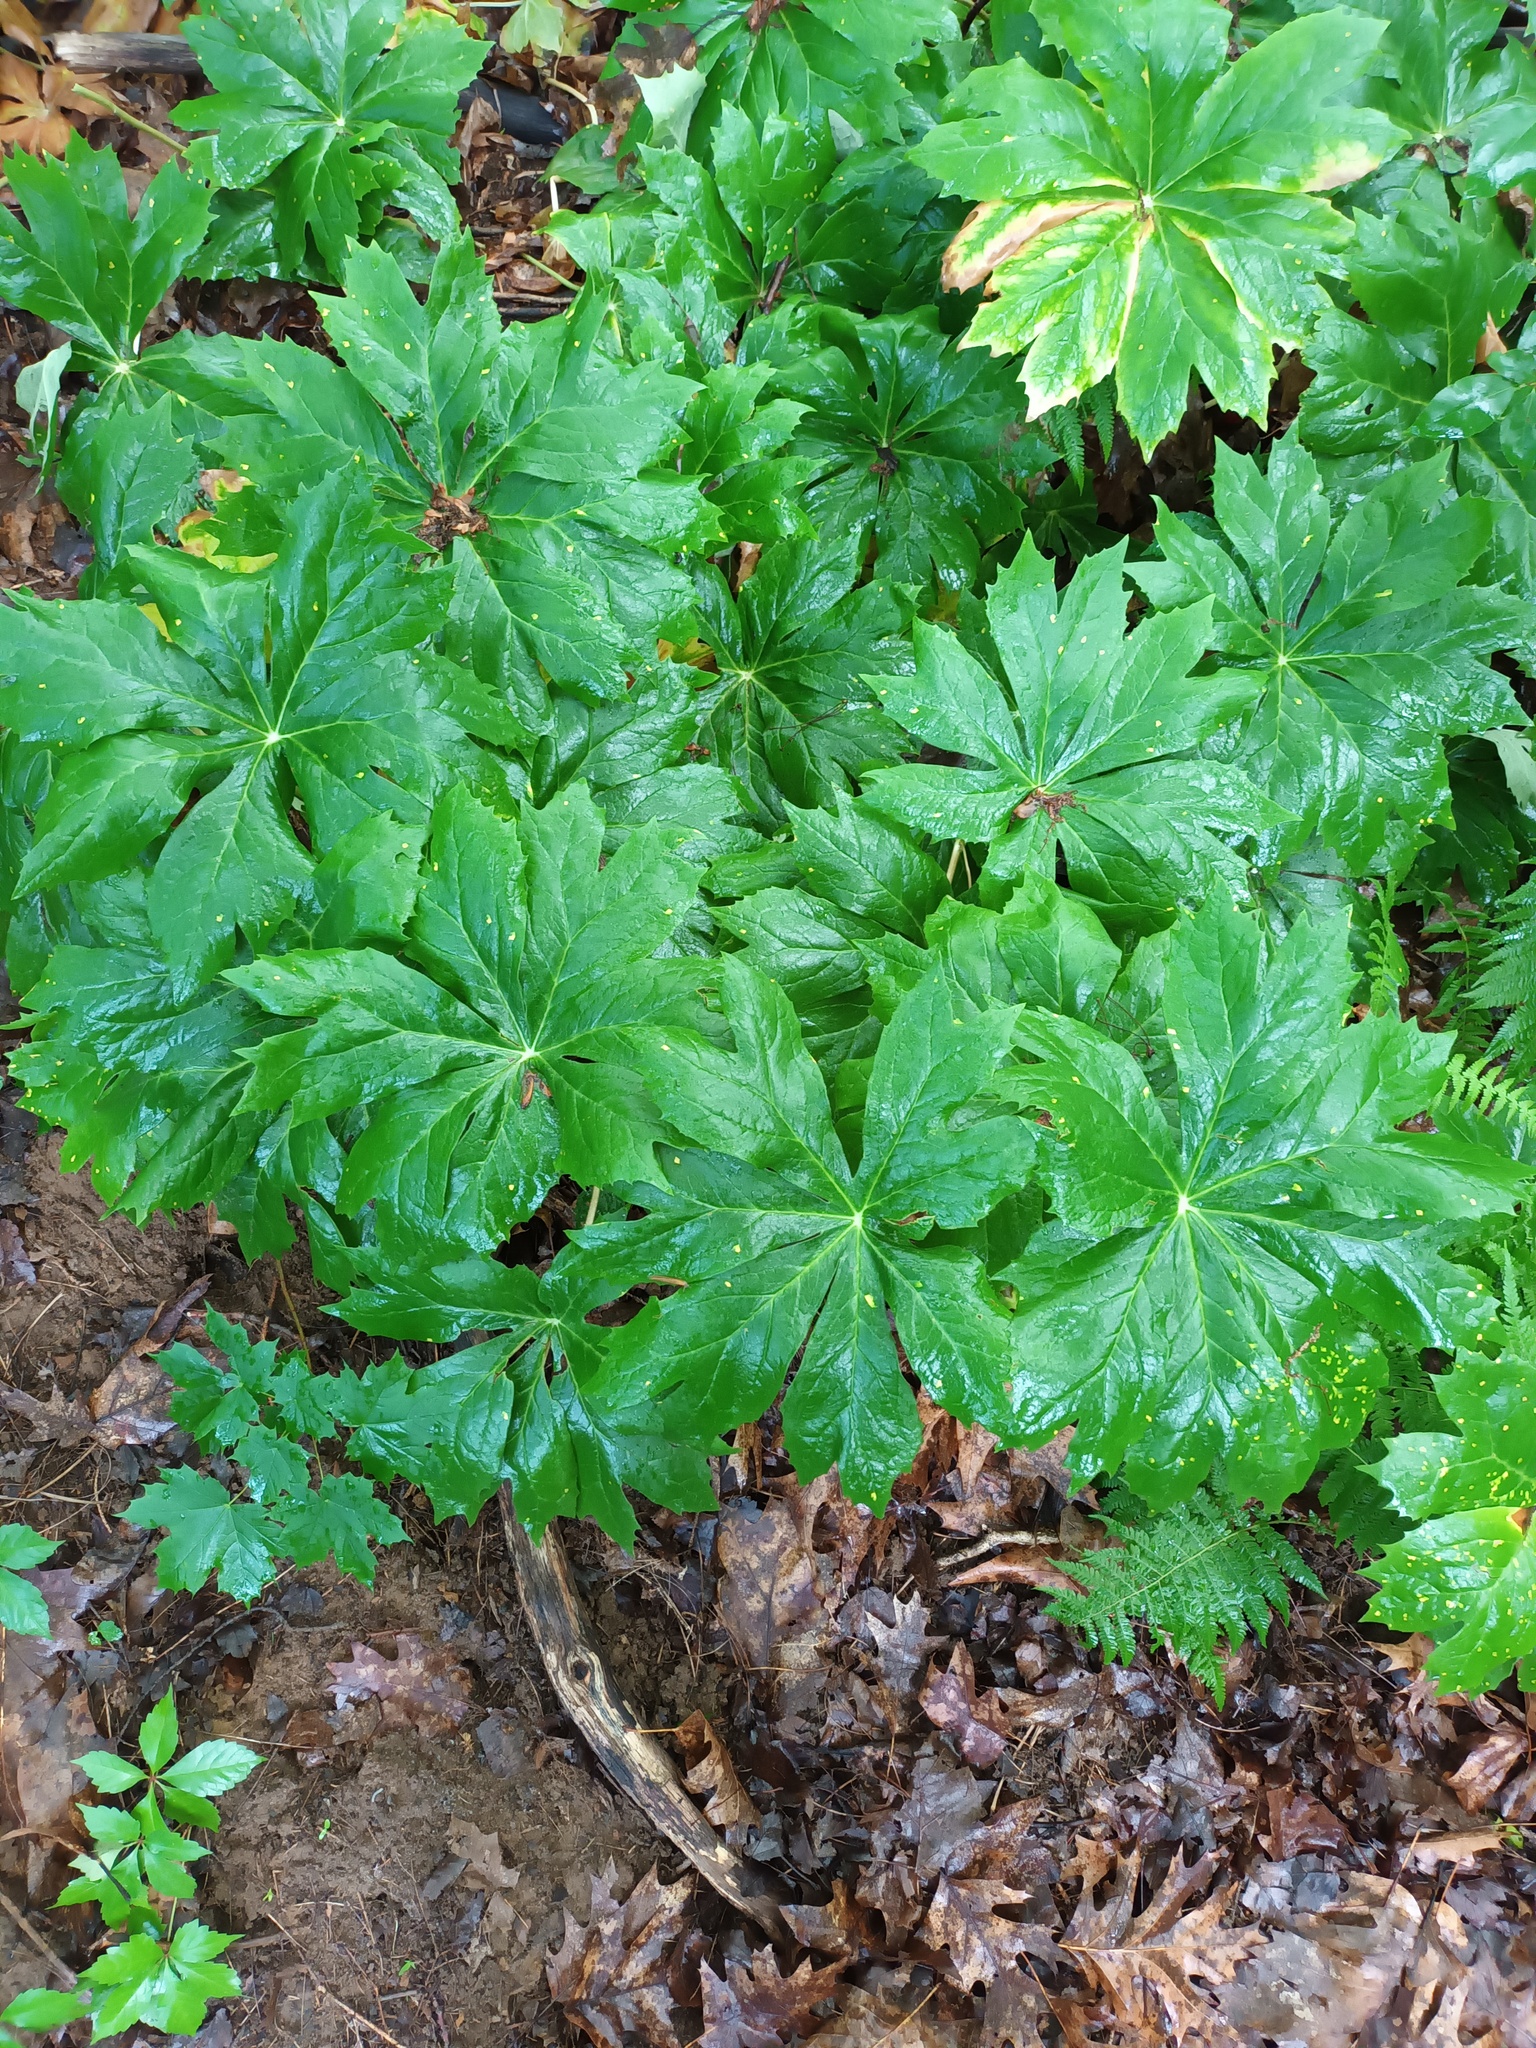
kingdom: Plantae
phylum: Tracheophyta
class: Magnoliopsida
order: Ranunculales
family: Berberidaceae
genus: Podophyllum
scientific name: Podophyllum peltatum
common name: Wild mandrake
